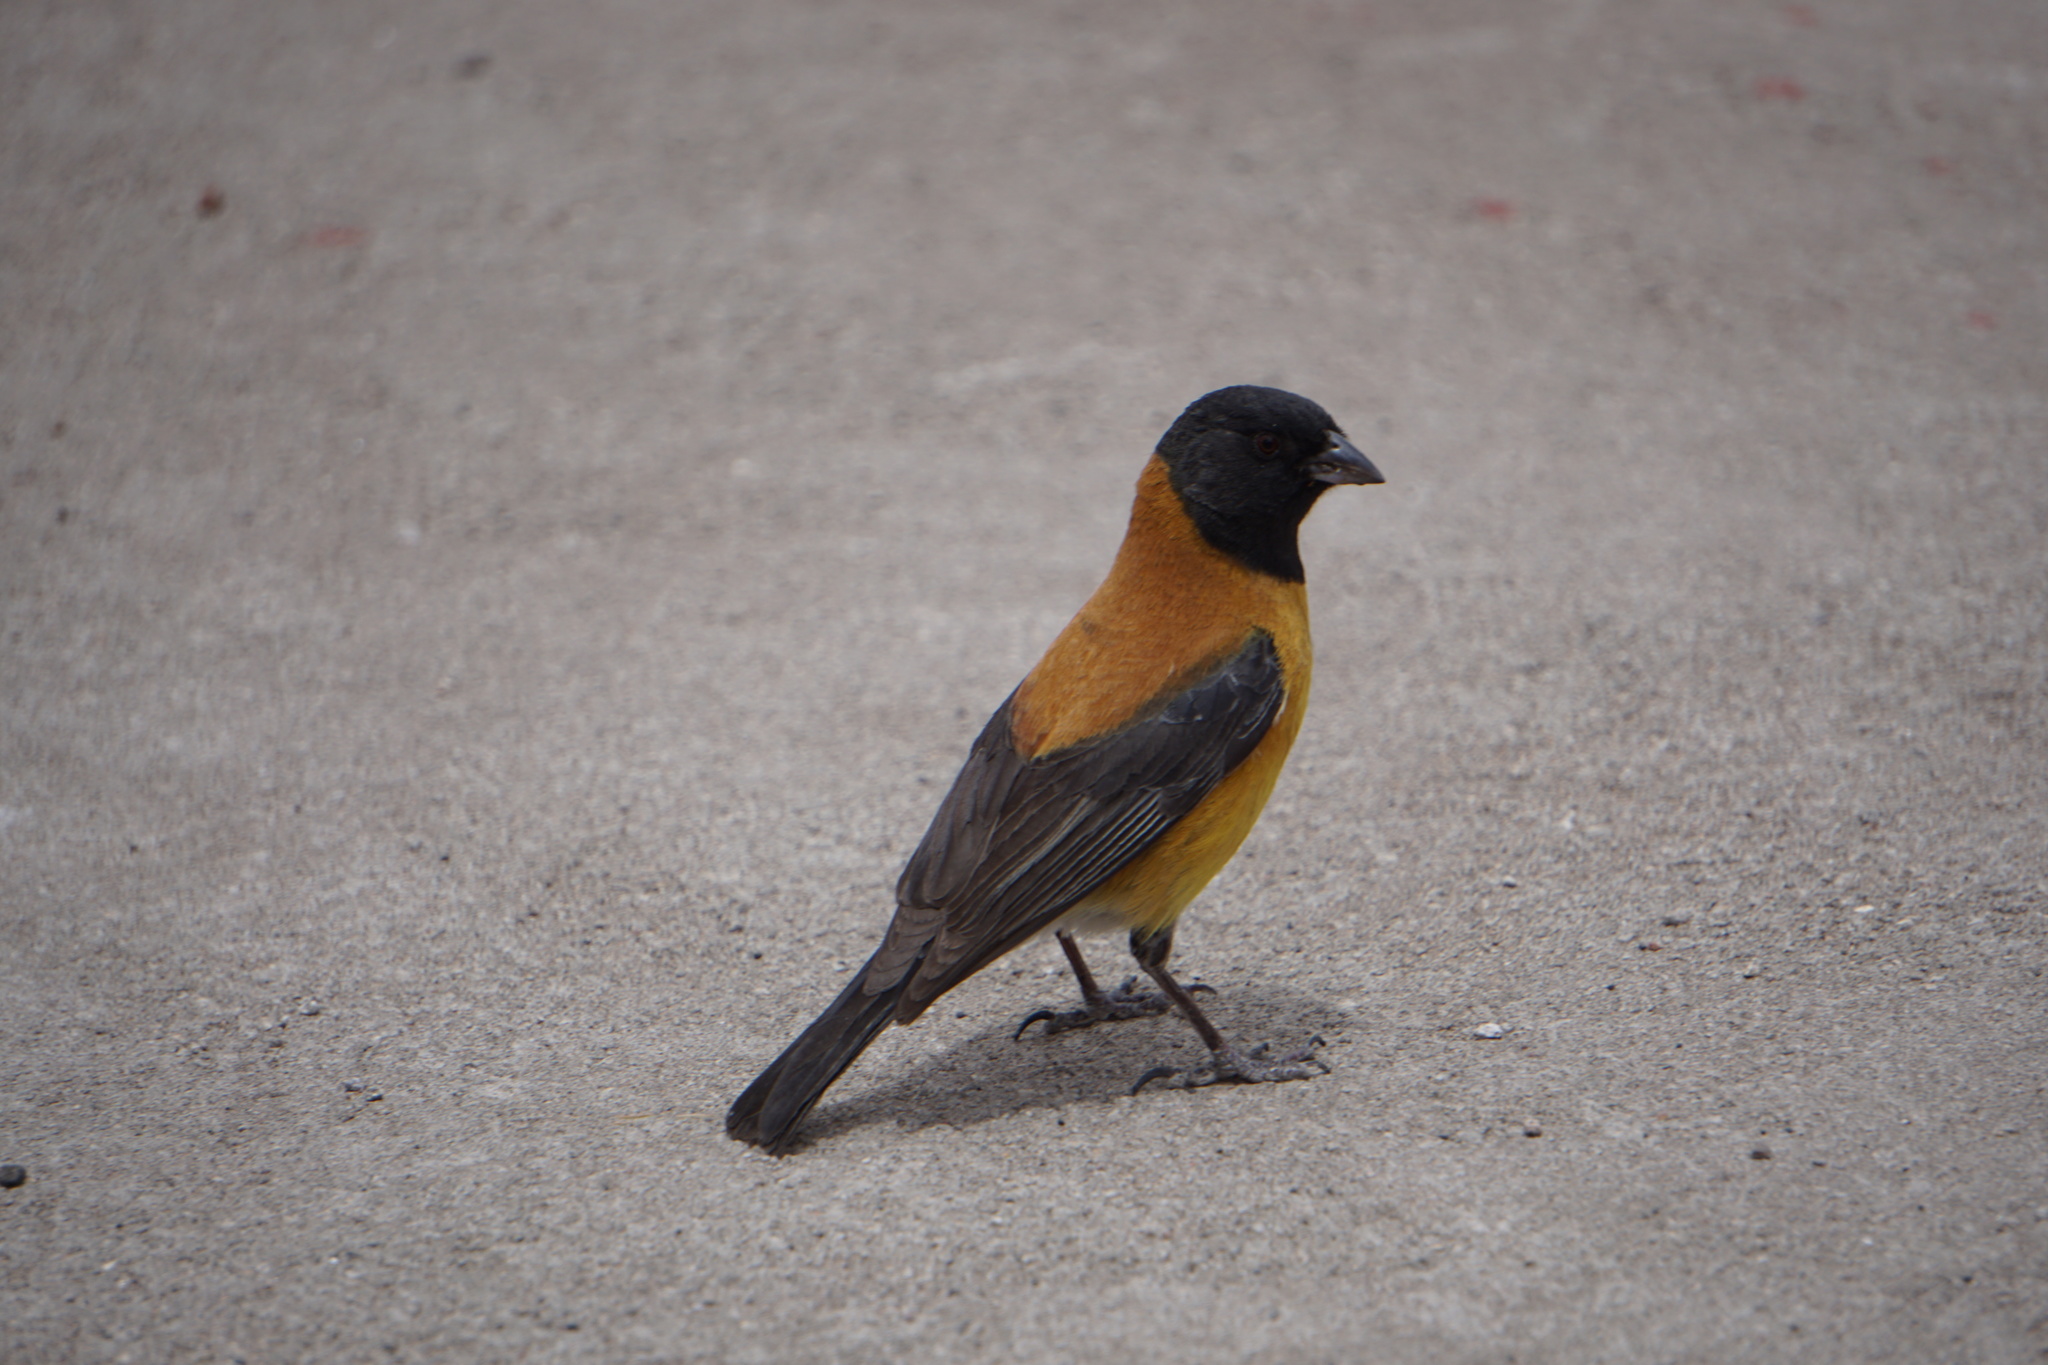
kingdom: Animalia
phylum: Chordata
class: Aves
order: Passeriformes
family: Thraupidae
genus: Phrygilus
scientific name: Phrygilus atriceps
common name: Black-hooded sierra finch
